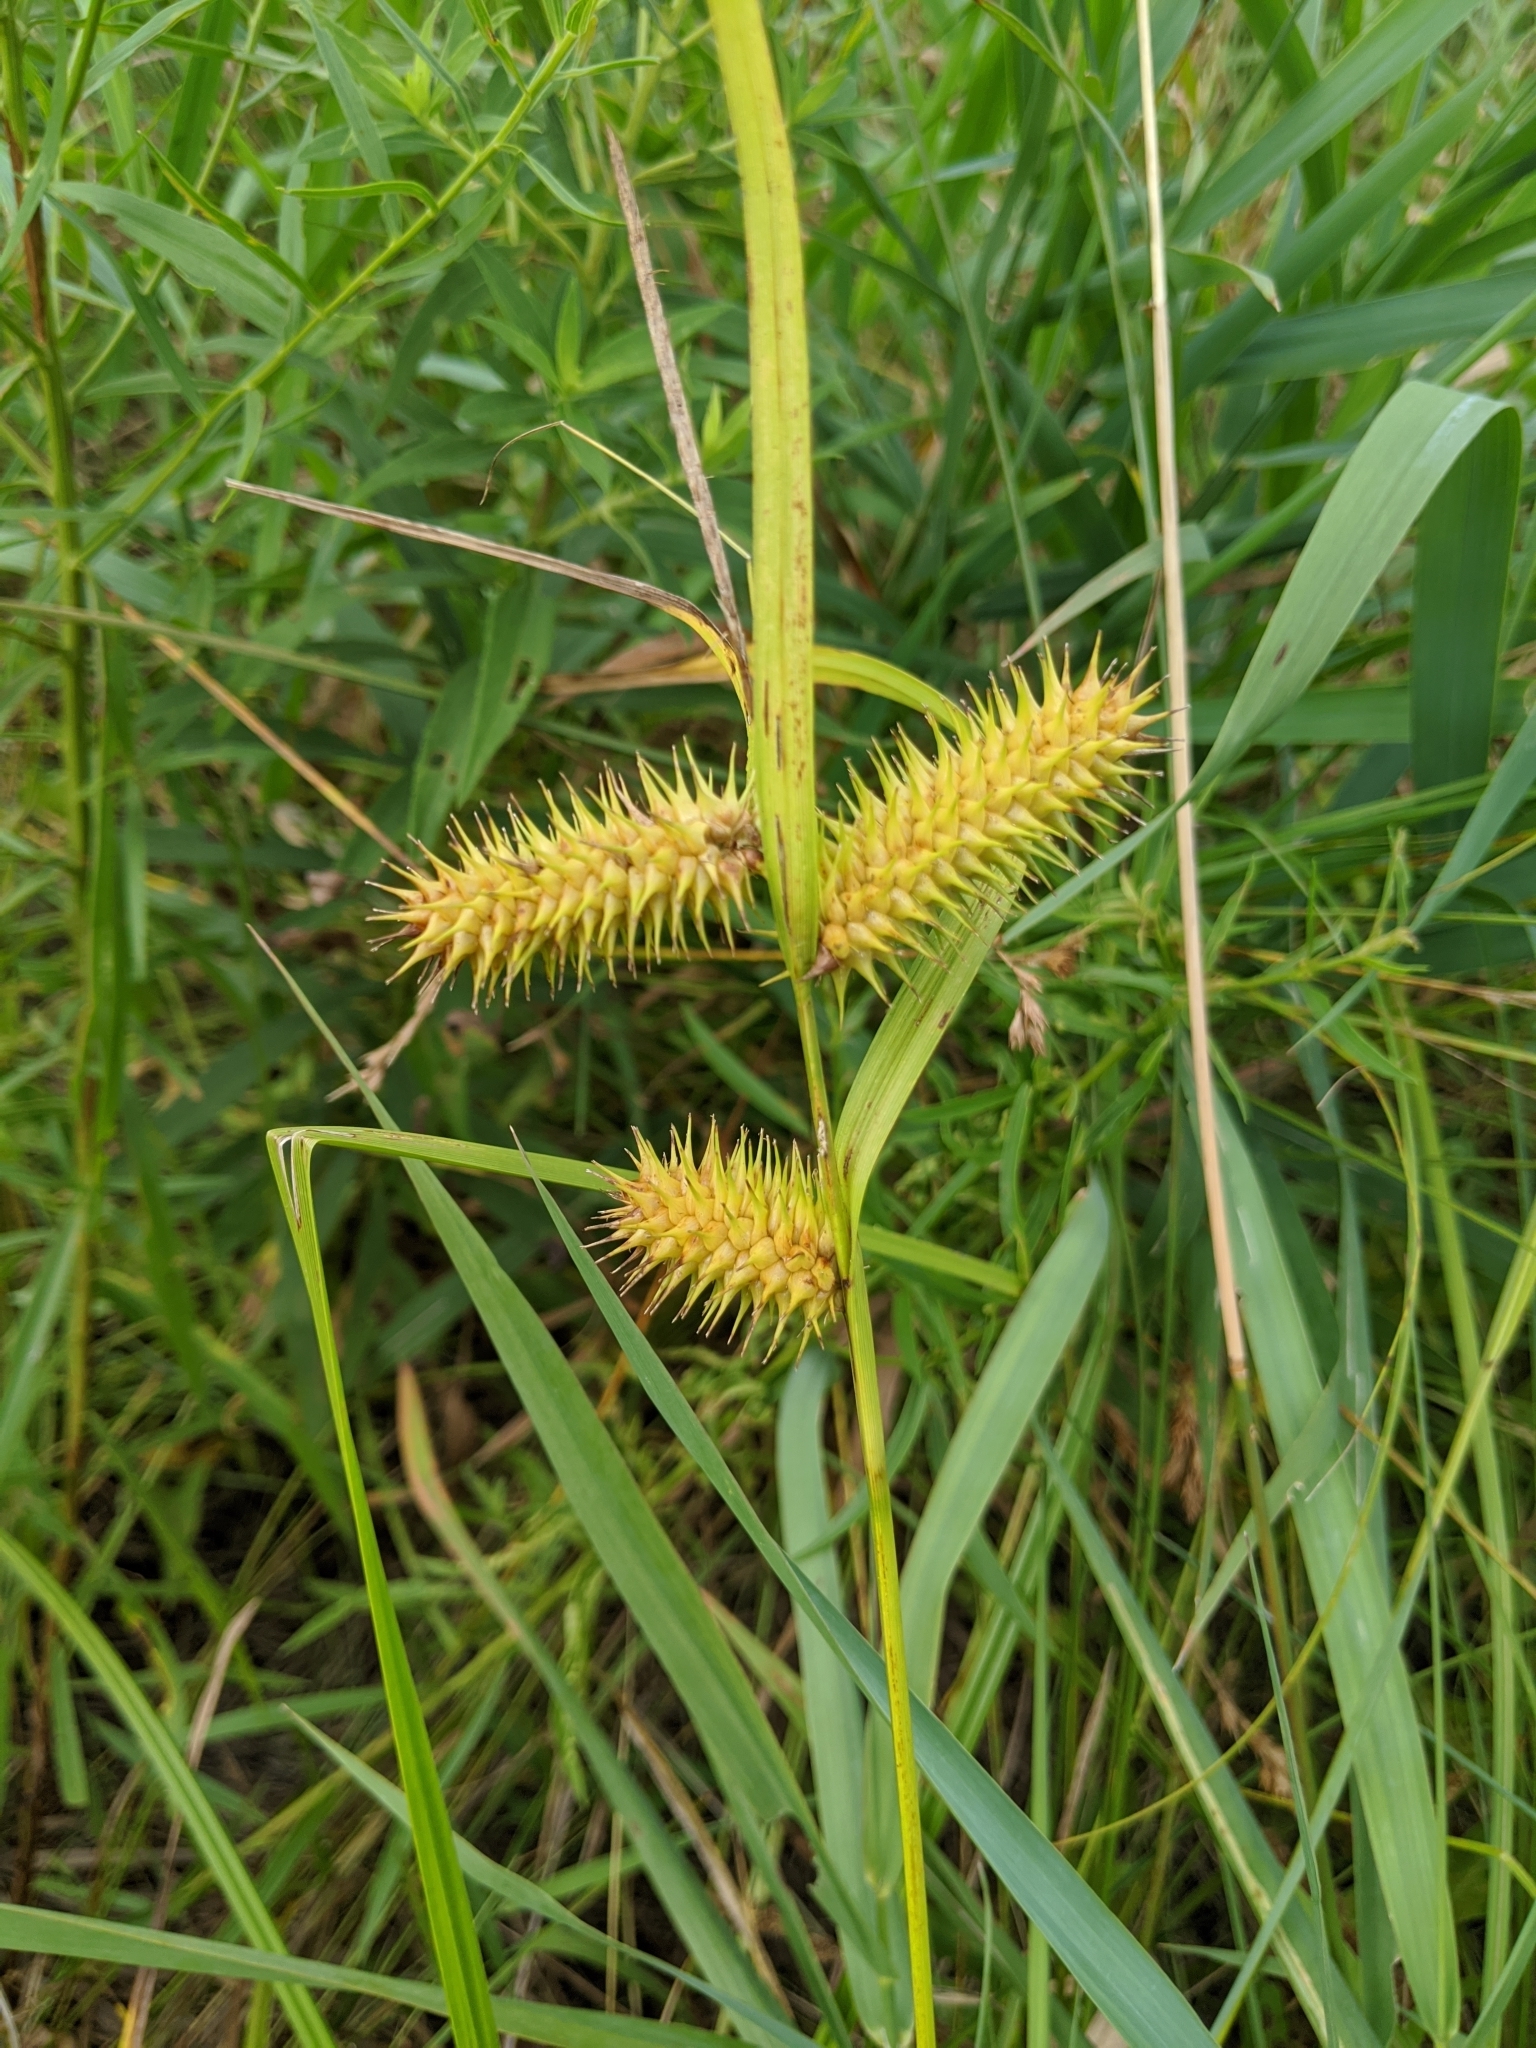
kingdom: Plantae
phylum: Tracheophyta
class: Liliopsida
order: Poales
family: Cyperaceae
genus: Carex
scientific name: Carex hystericina
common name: Bottlebrush sedge
